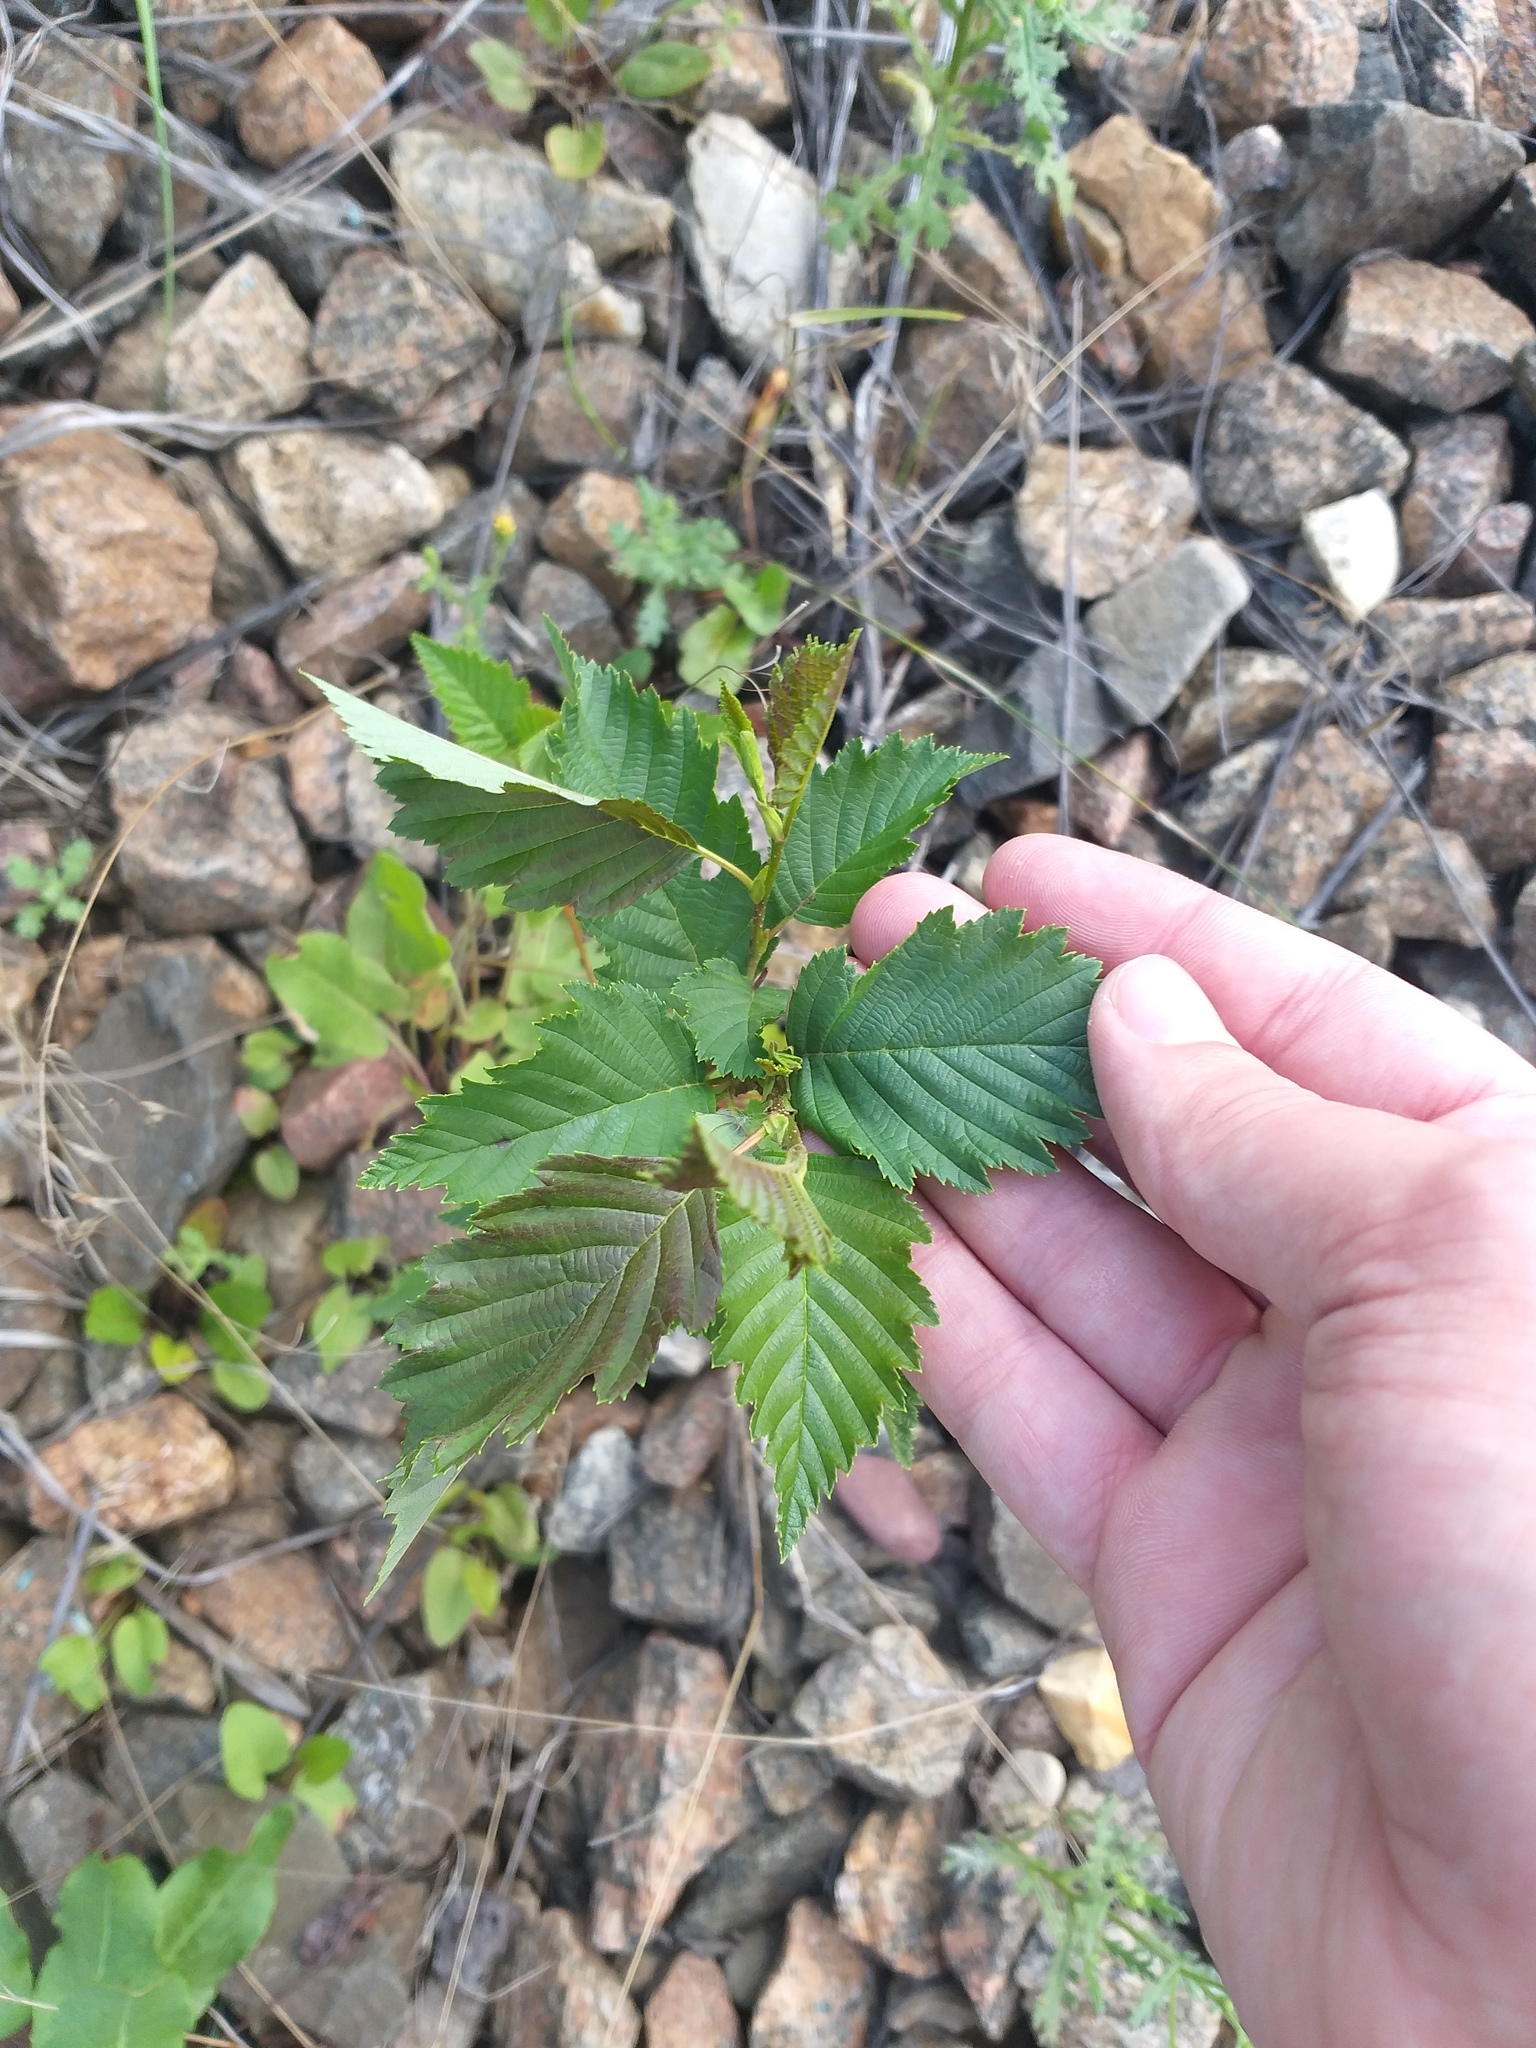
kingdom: Plantae
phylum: Tracheophyta
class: Magnoliopsida
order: Fagales
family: Betulaceae
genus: Alnus
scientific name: Alnus incana
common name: Grey alder
